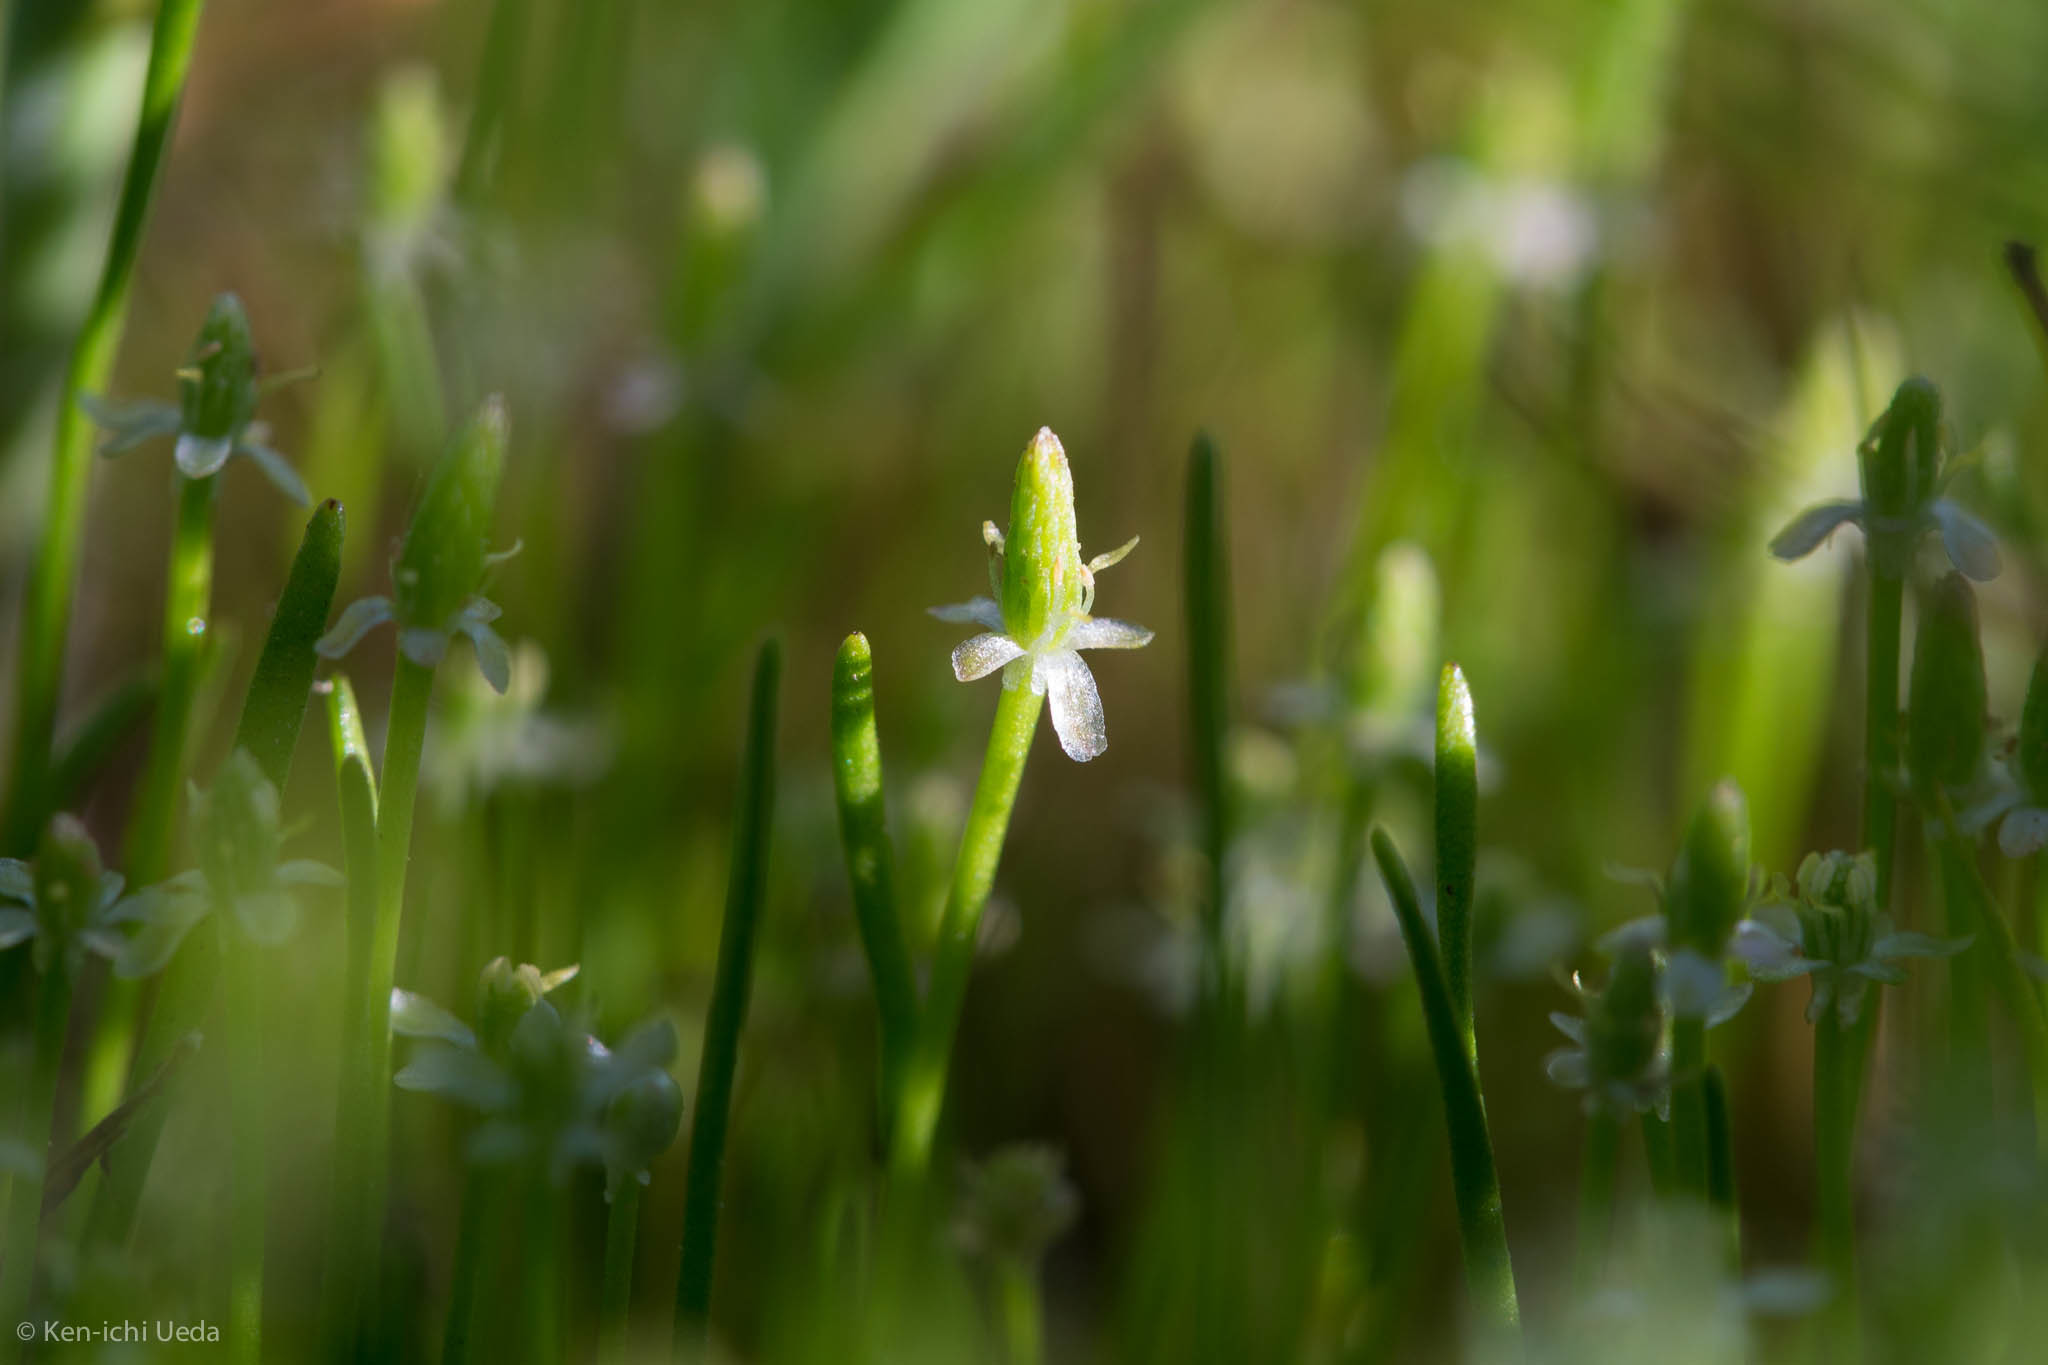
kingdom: Plantae
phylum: Tracheophyta
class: Magnoliopsida
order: Ranunculales
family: Ranunculaceae
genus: Myosurus
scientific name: Myosurus minimus
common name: Mousetail
